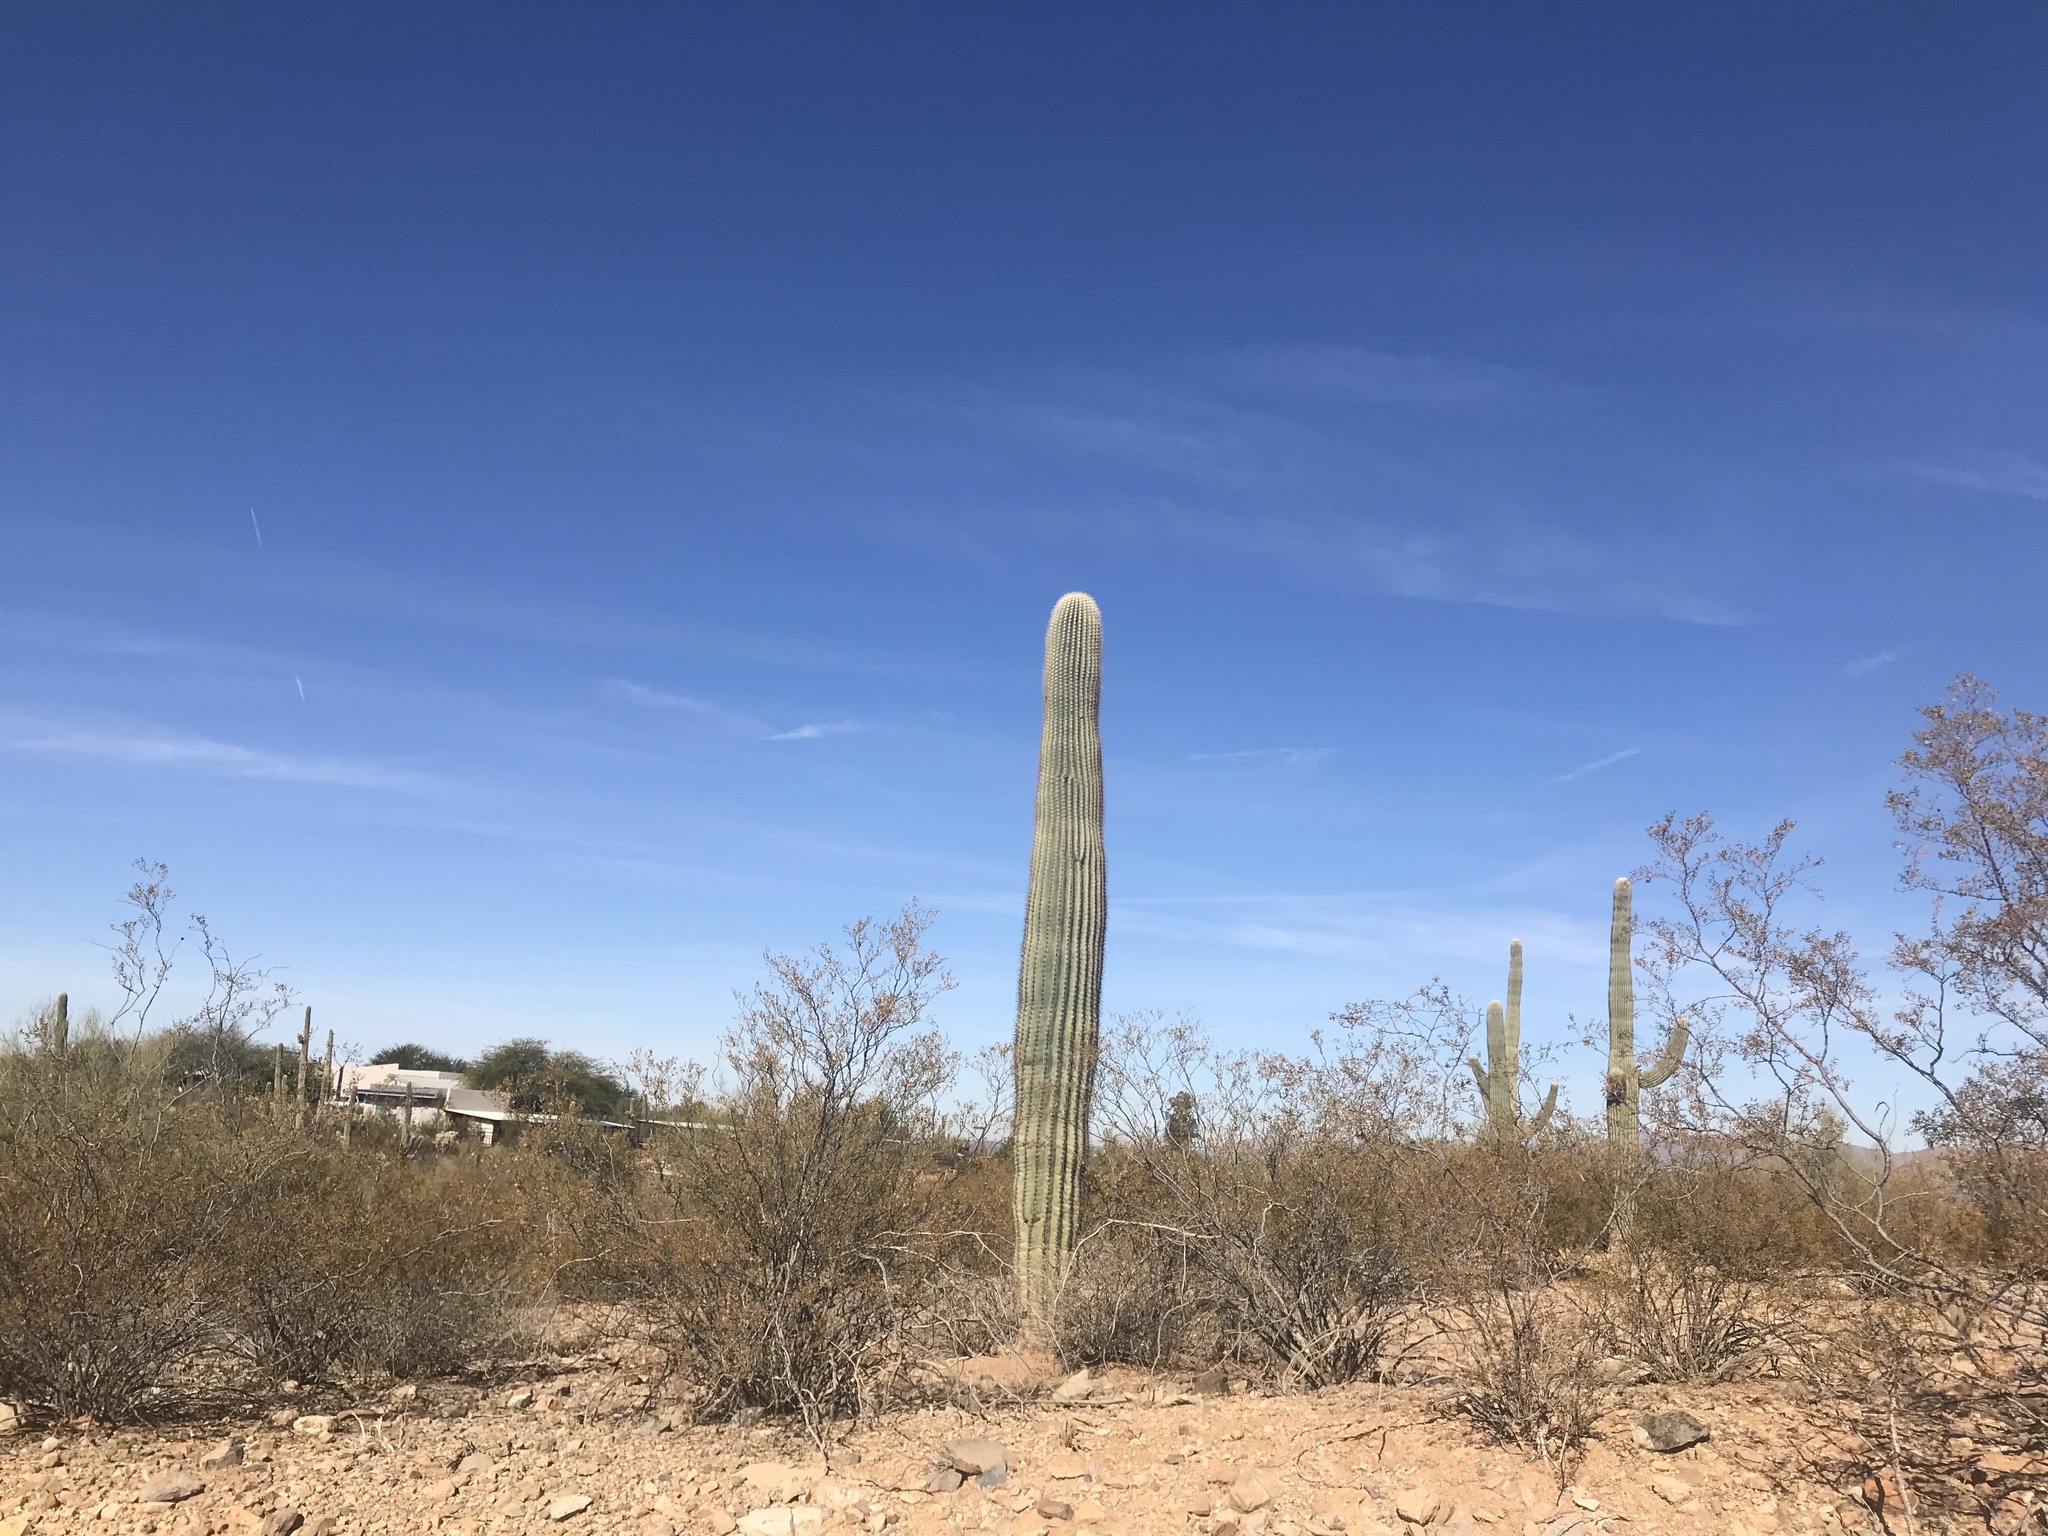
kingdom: Plantae
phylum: Tracheophyta
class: Magnoliopsida
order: Caryophyllales
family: Cactaceae
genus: Carnegiea
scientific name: Carnegiea gigantea
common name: Saguaro
